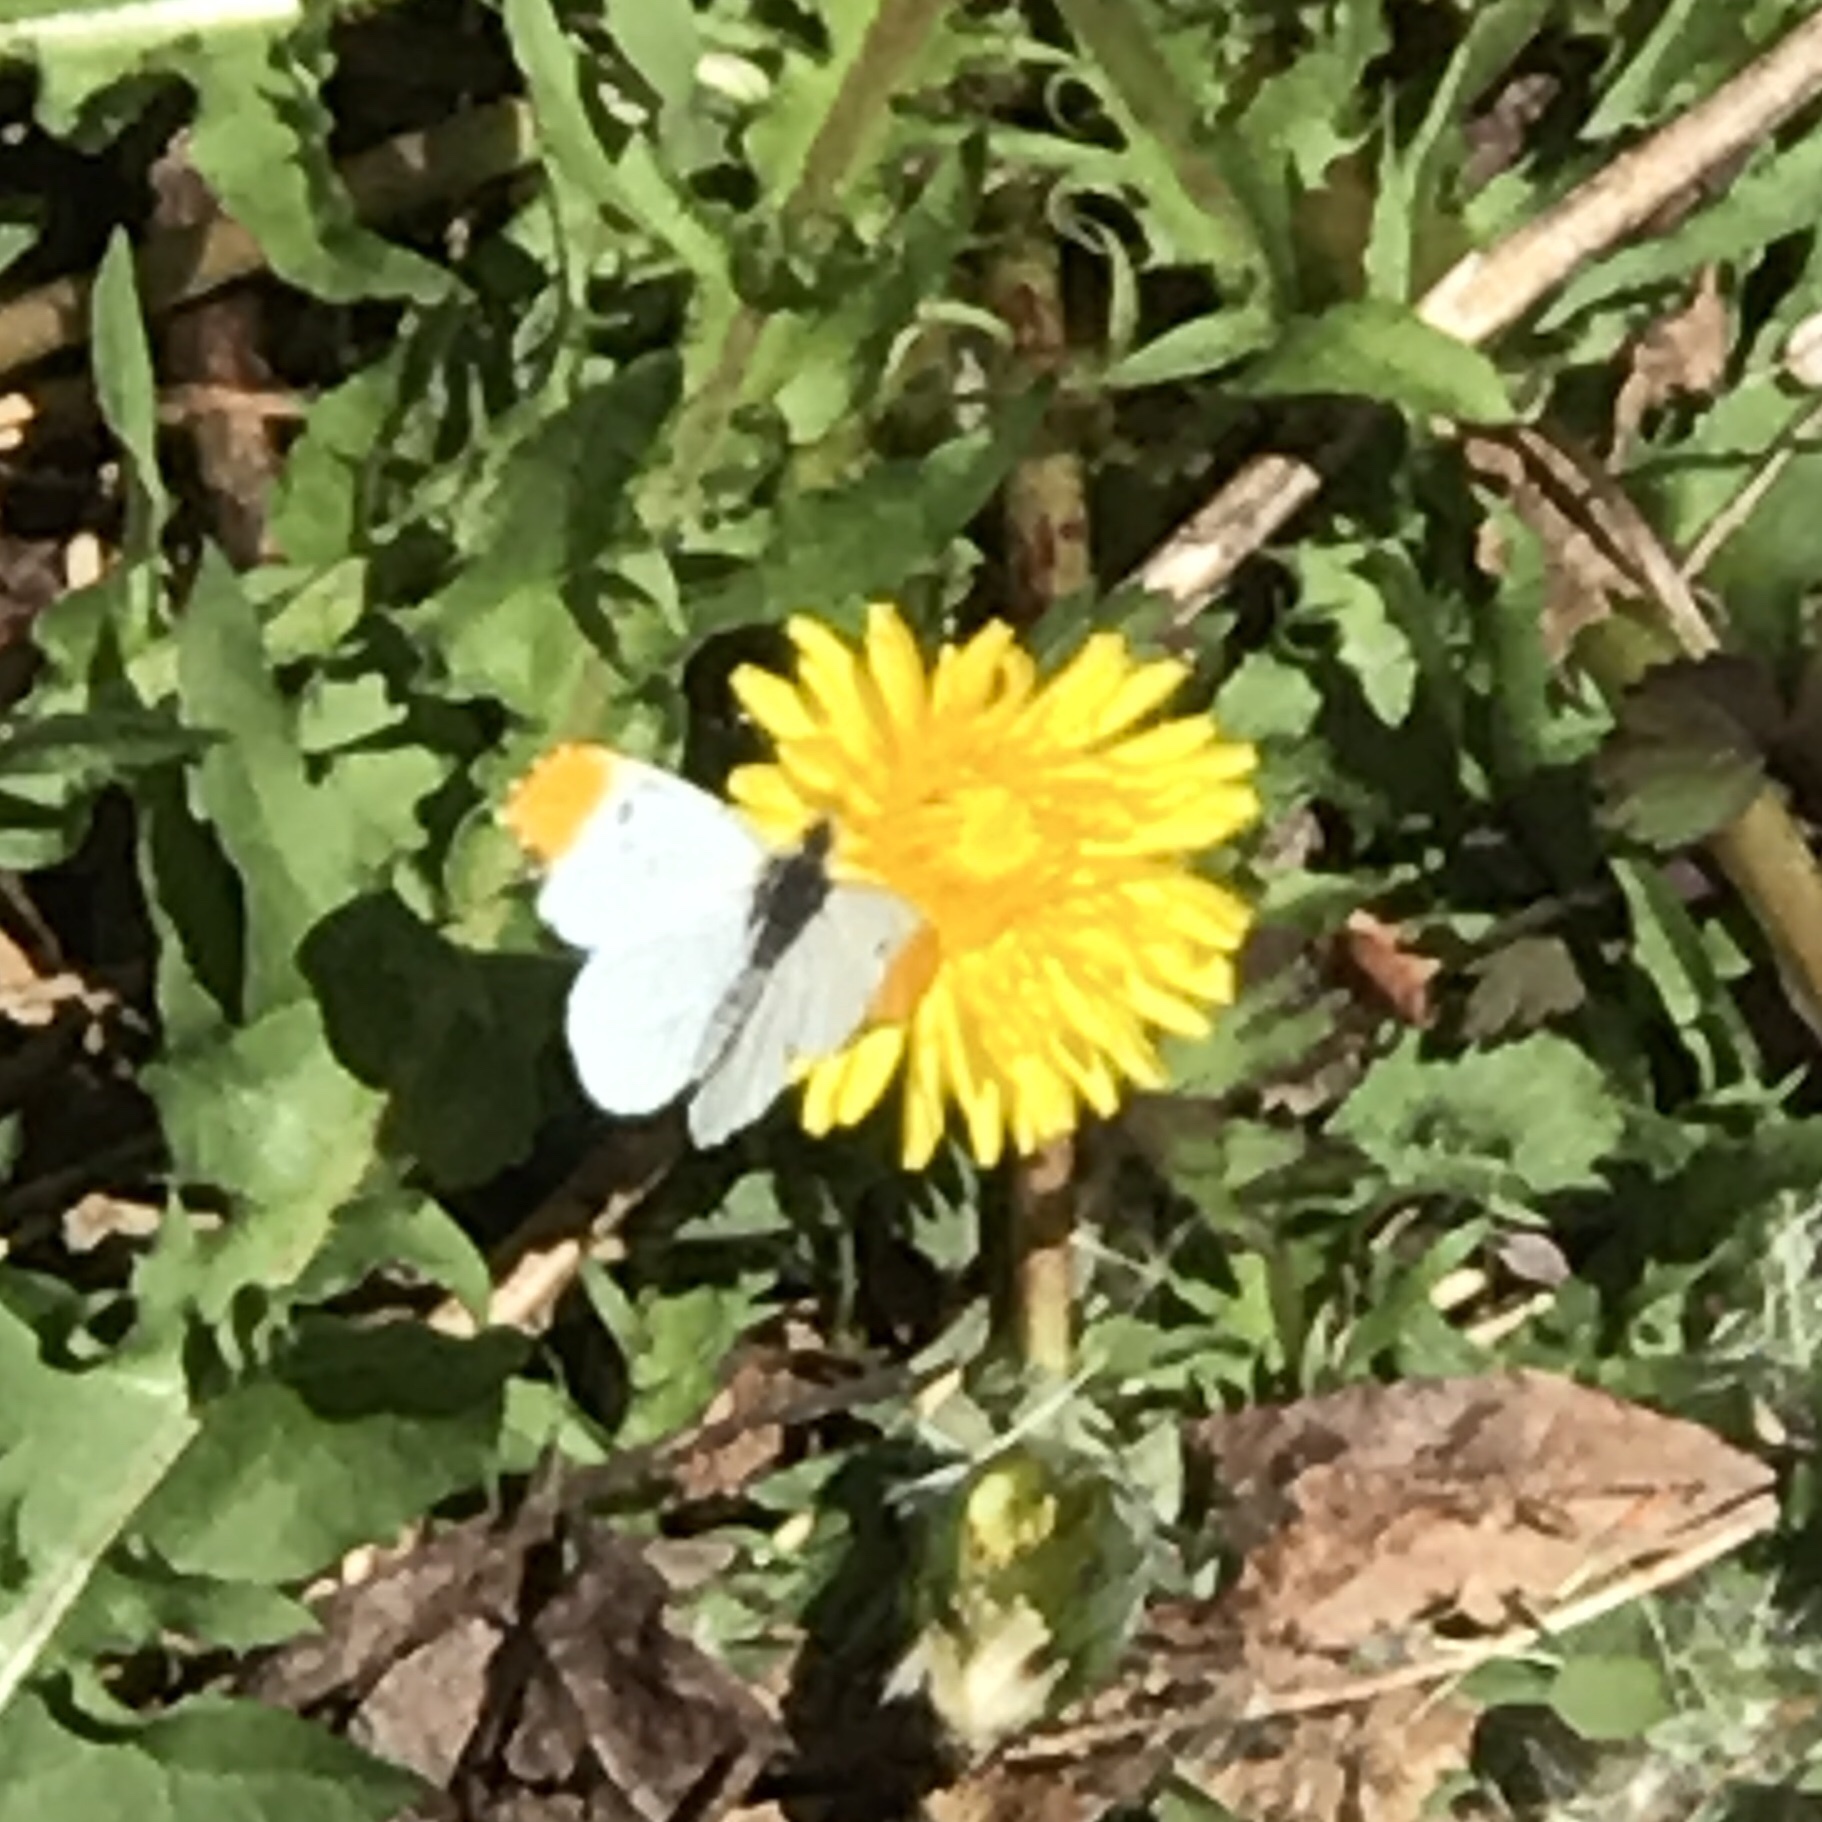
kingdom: Animalia
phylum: Arthropoda
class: Insecta
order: Lepidoptera
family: Pieridae
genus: Anthocharis
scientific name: Anthocharis midea
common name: Falcate orangetip
